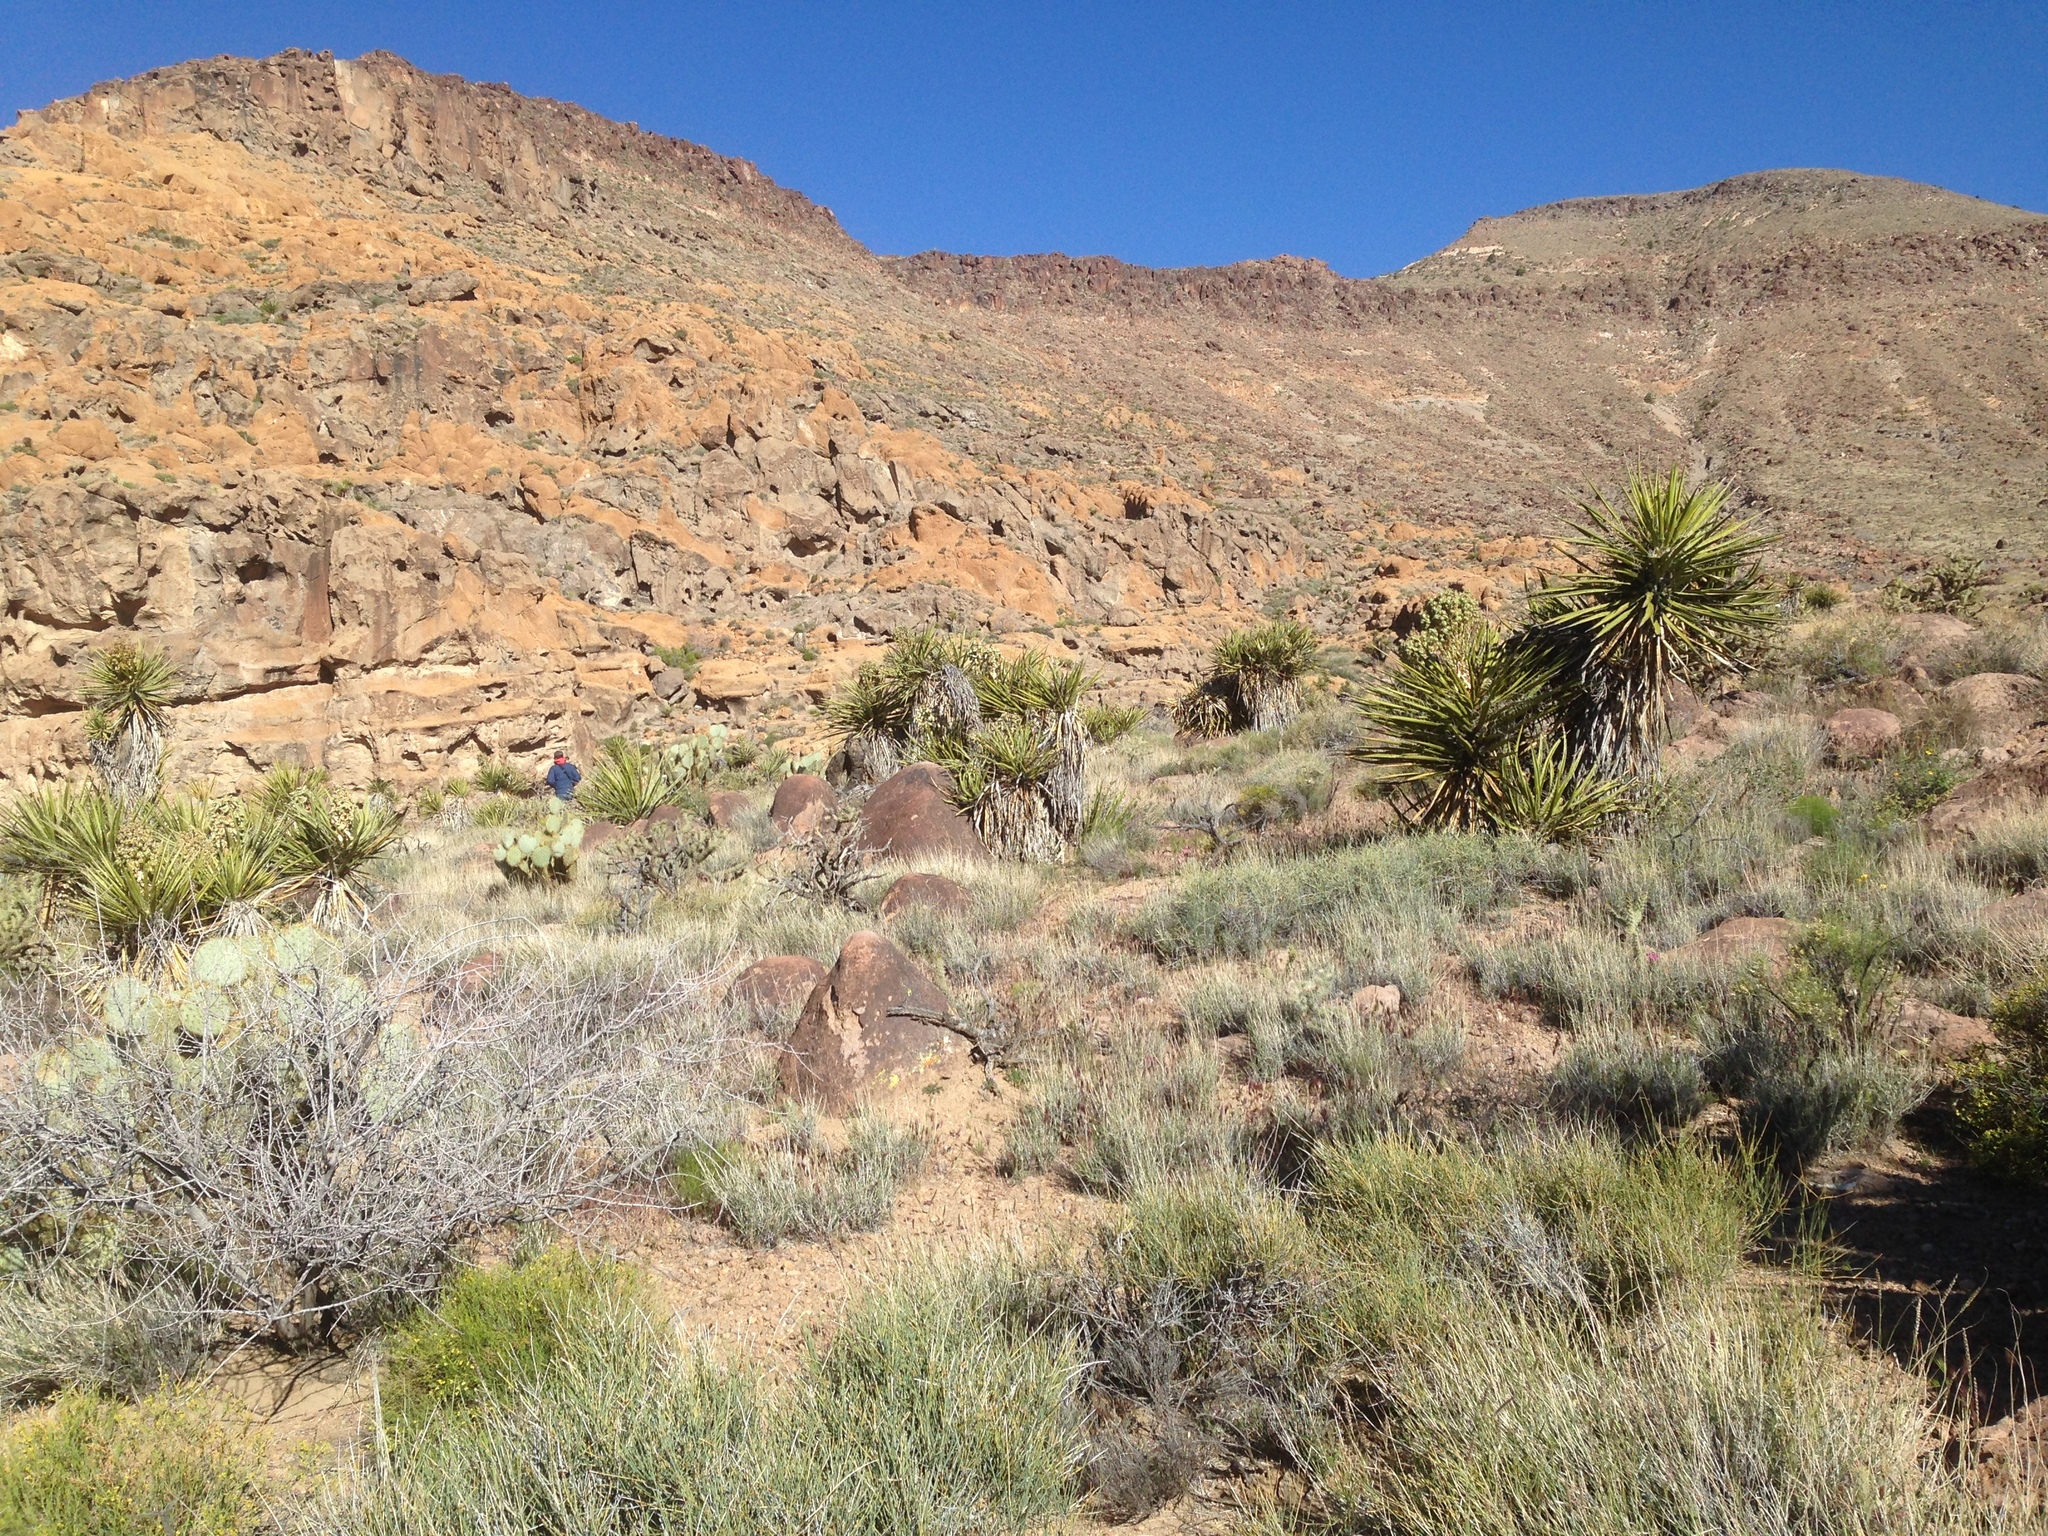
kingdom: Plantae
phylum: Tracheophyta
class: Liliopsida
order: Asparagales
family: Asparagaceae
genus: Yucca
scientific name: Yucca schidigera
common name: Mojave yucca
